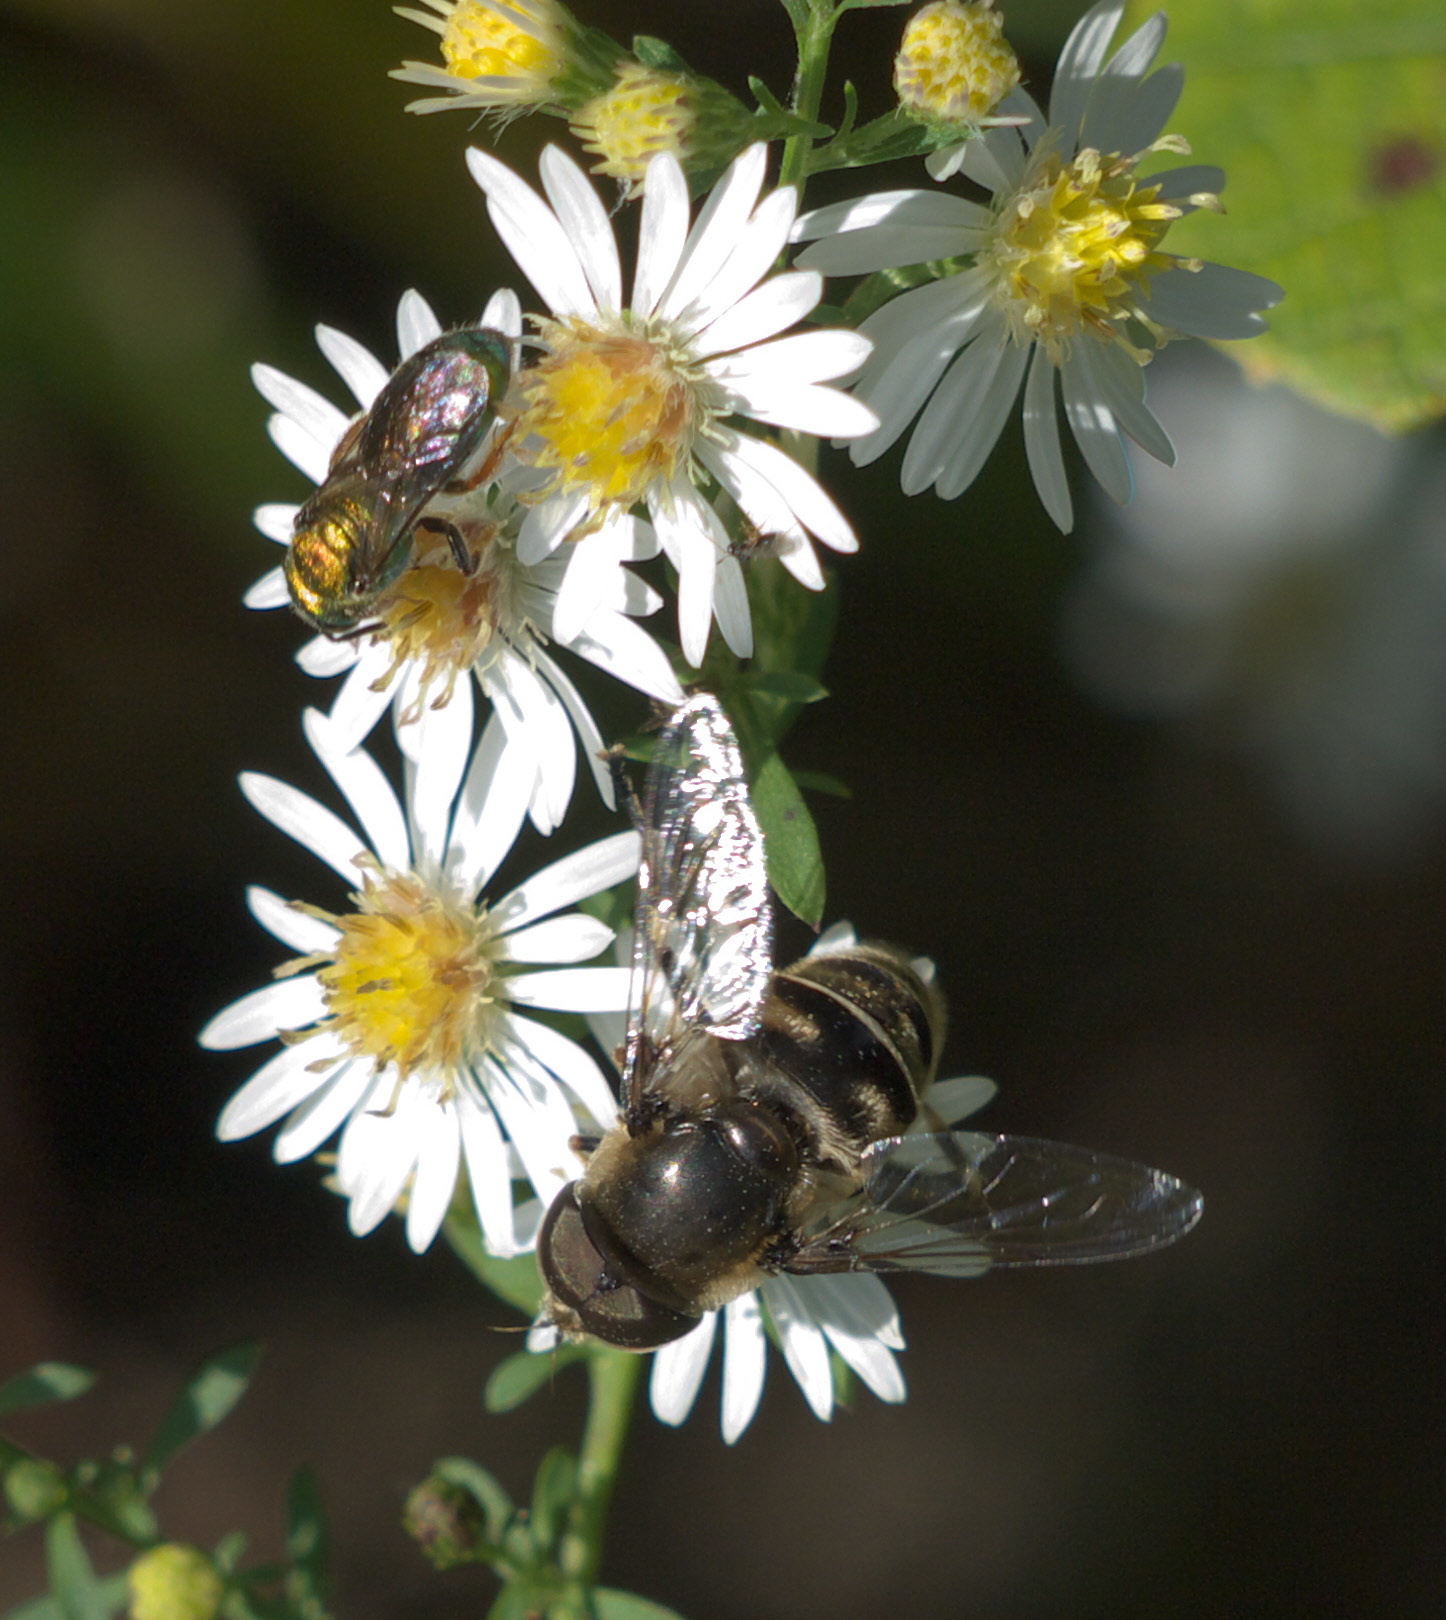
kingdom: Animalia
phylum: Arthropoda
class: Insecta
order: Diptera
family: Syrphidae
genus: Eristalis
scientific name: Eristalis dimidiata
